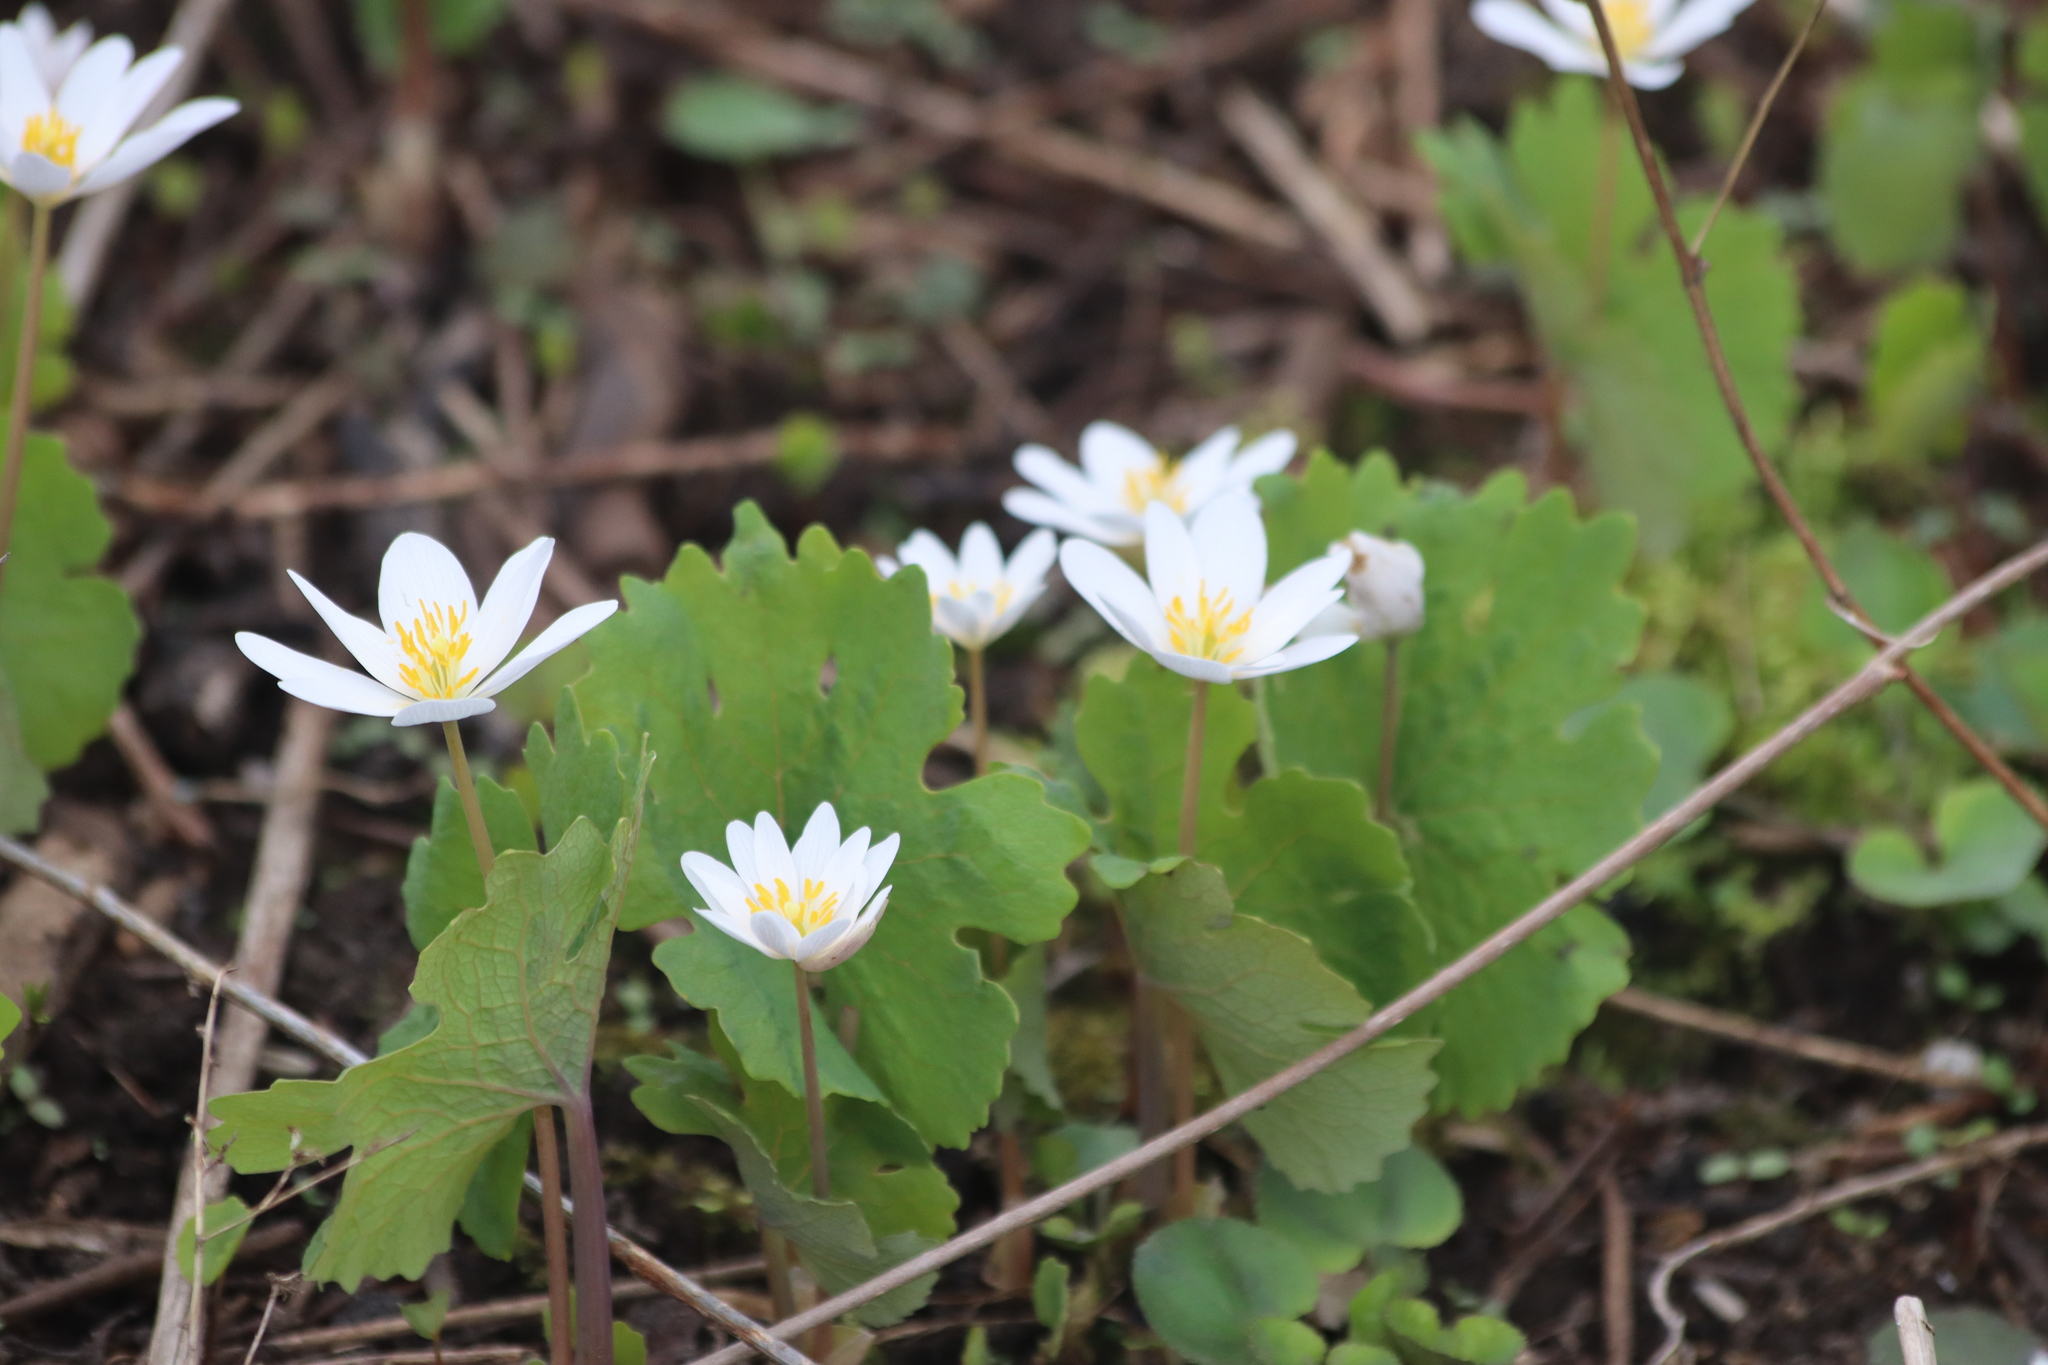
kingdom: Plantae
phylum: Tracheophyta
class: Magnoliopsida
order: Ranunculales
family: Papaveraceae
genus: Sanguinaria
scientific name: Sanguinaria canadensis
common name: Bloodroot
